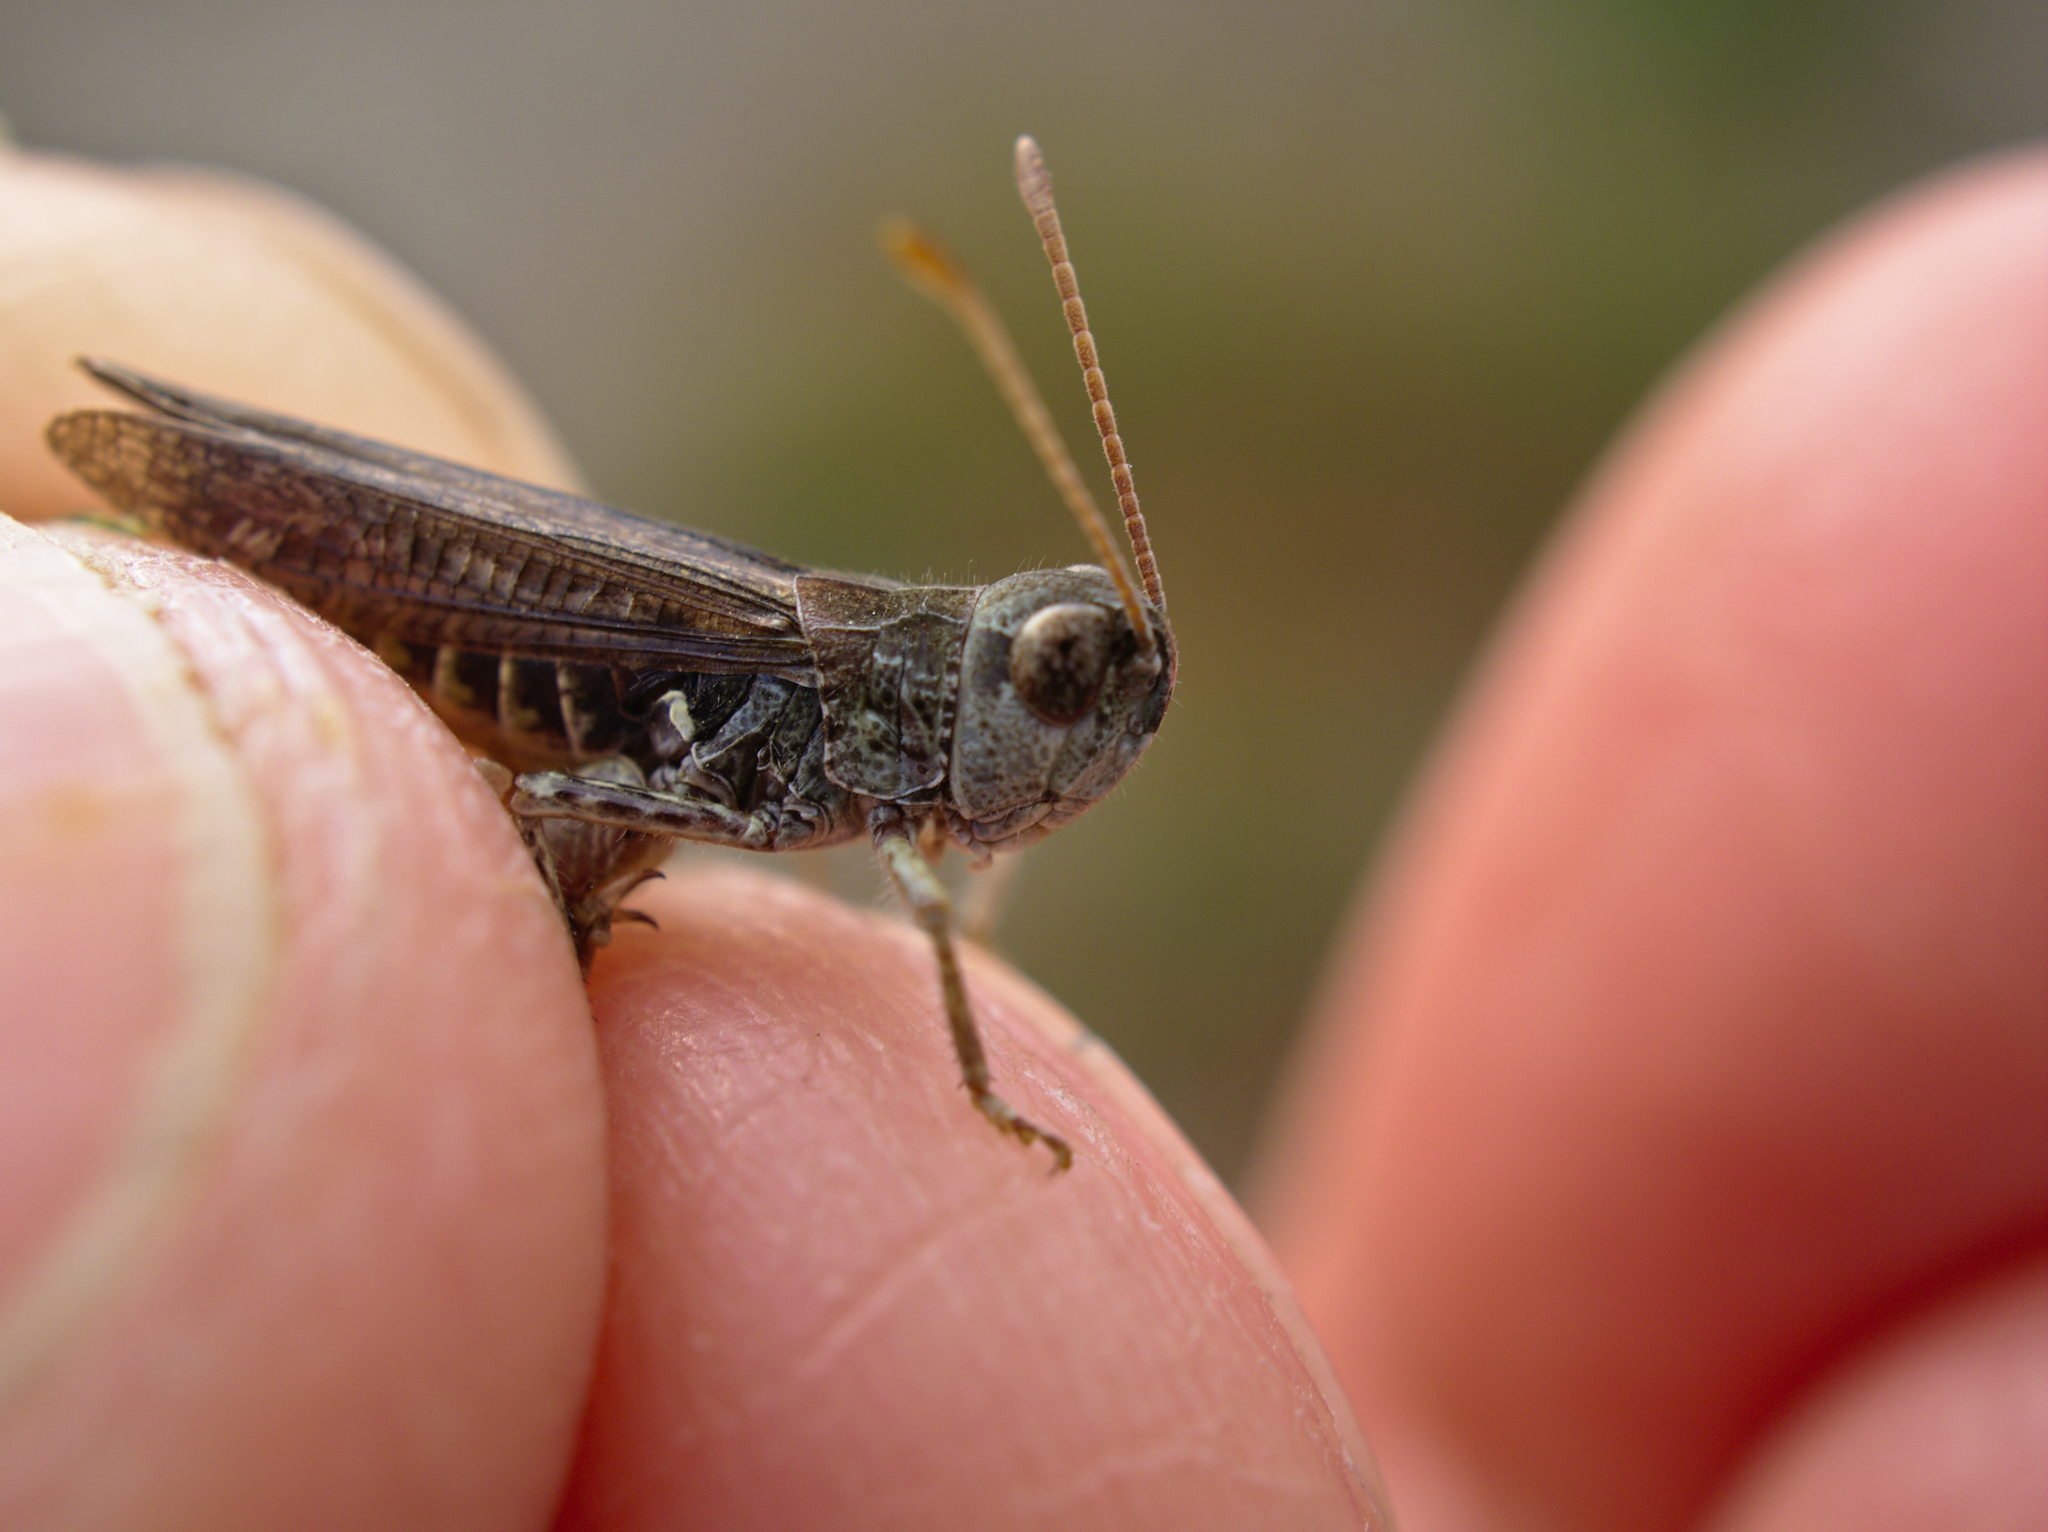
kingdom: Animalia
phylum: Arthropoda
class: Insecta
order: Orthoptera
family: Acrididae
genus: Myrmeleotettix
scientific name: Myrmeleotettix maculatus
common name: Mottled grasshopper
